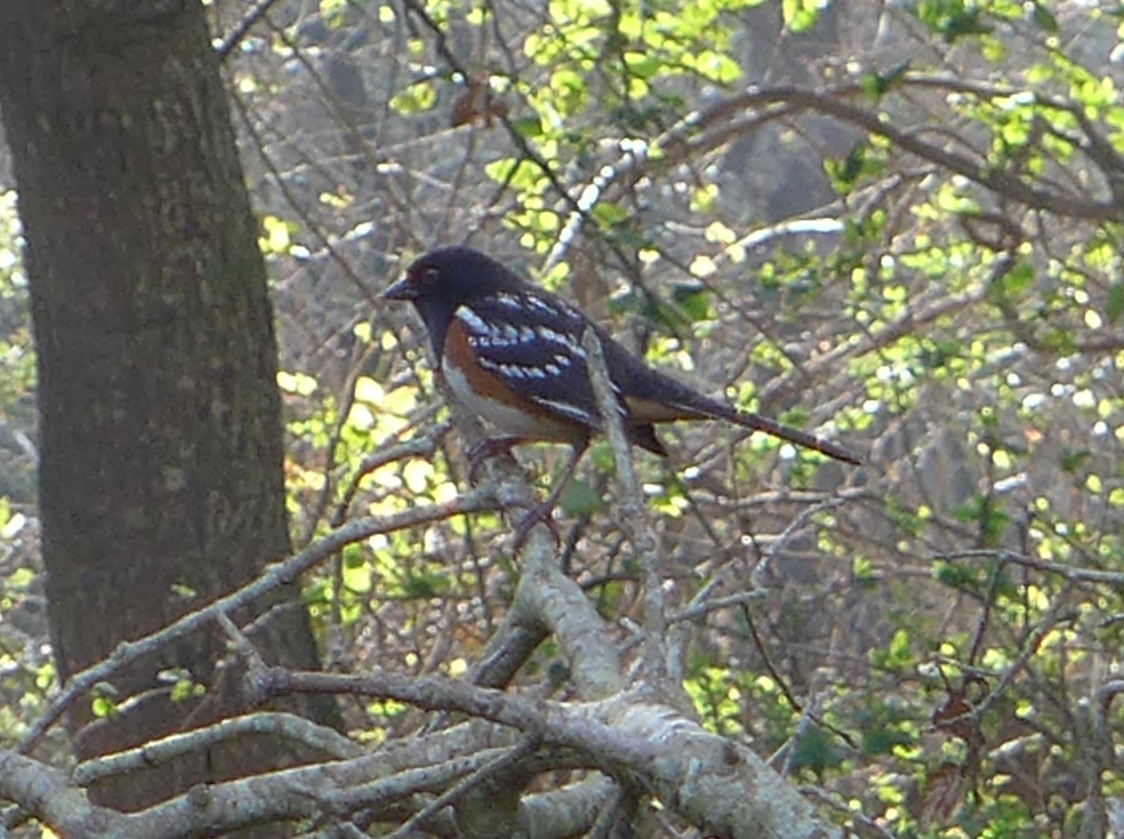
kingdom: Animalia
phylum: Chordata
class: Aves
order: Passeriformes
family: Passerellidae
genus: Pipilo
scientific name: Pipilo maculatus
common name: Spotted towhee
